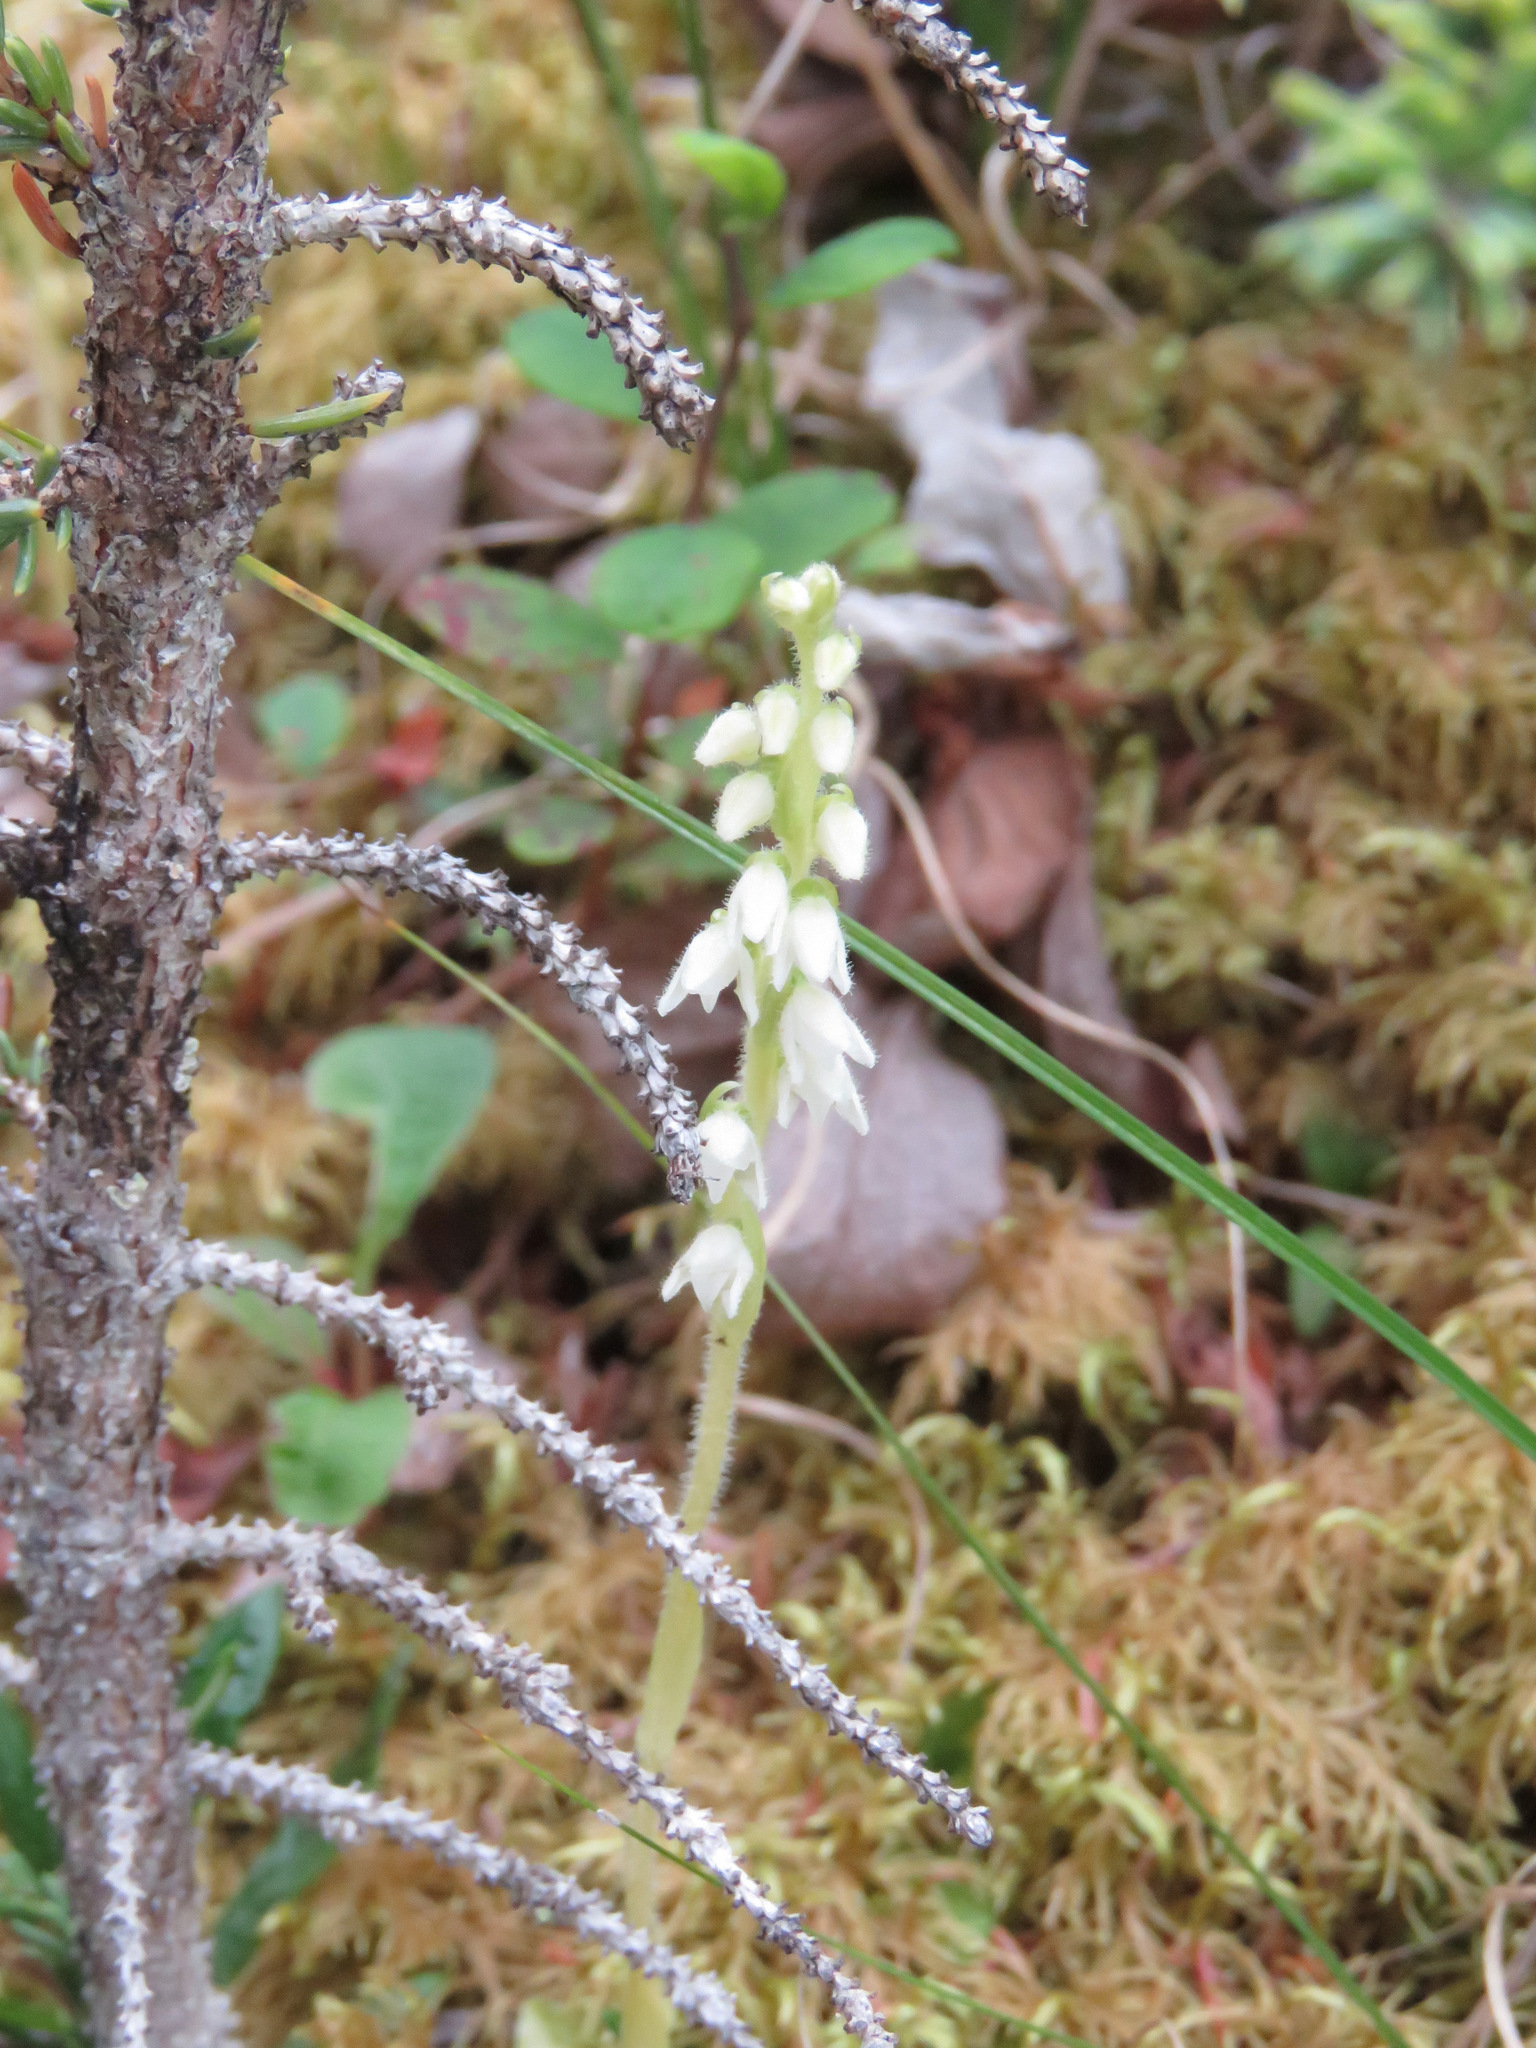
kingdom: Plantae
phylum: Tracheophyta
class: Liliopsida
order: Asparagales
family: Orchidaceae
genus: Goodyera
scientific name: Goodyera repens
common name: Creeping lady's-tresses
